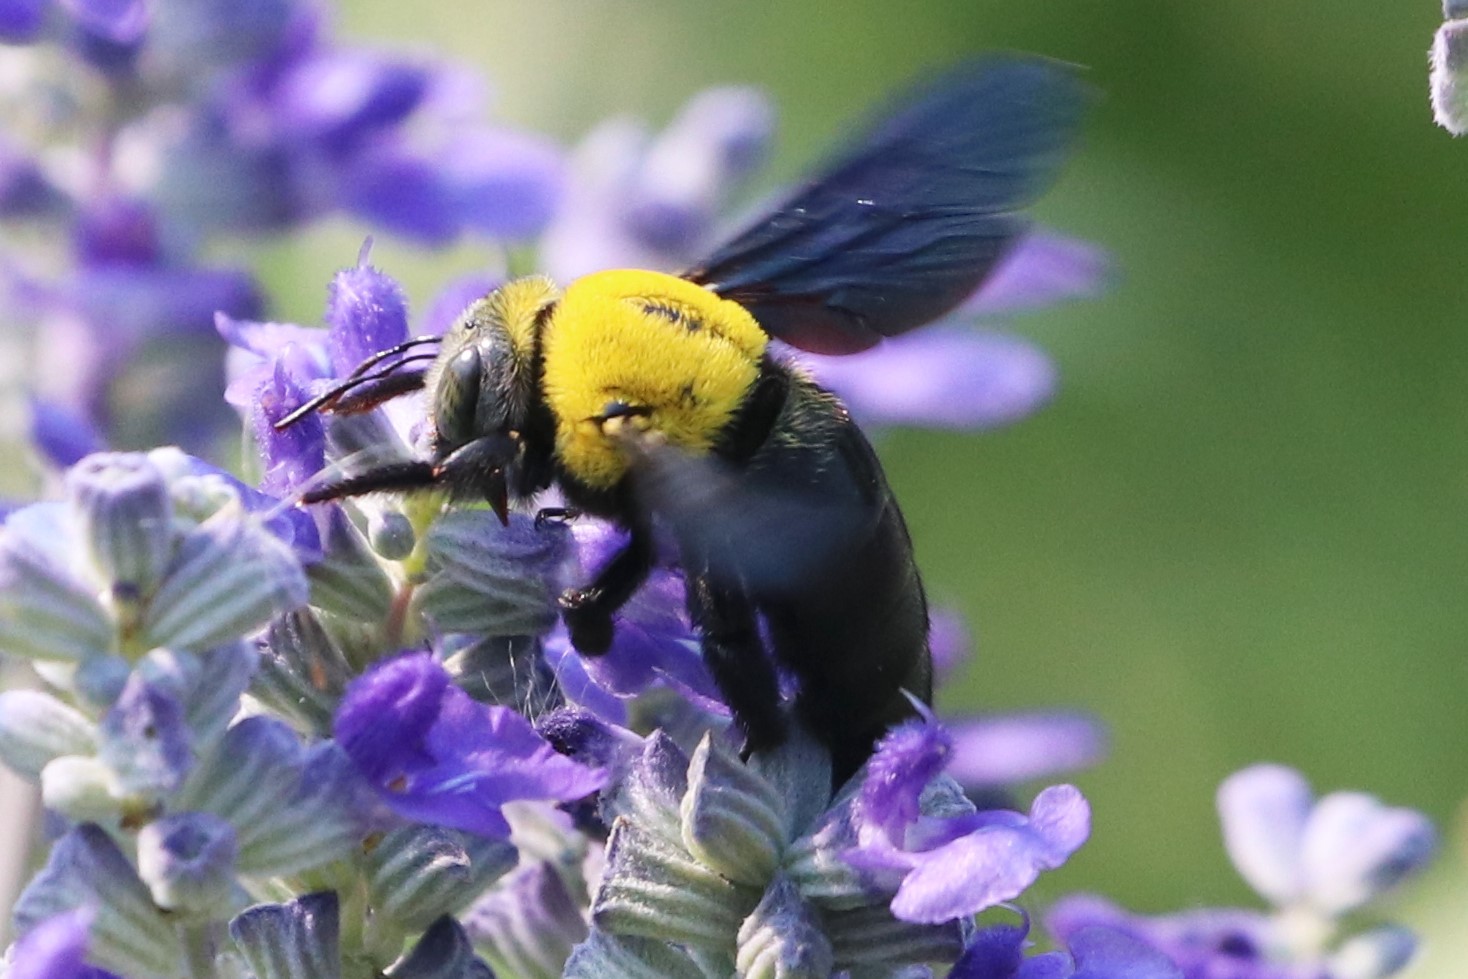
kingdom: Animalia
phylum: Arthropoda
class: Insecta
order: Hymenoptera
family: Apidae
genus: Xylocopa
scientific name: Xylocopa minor
